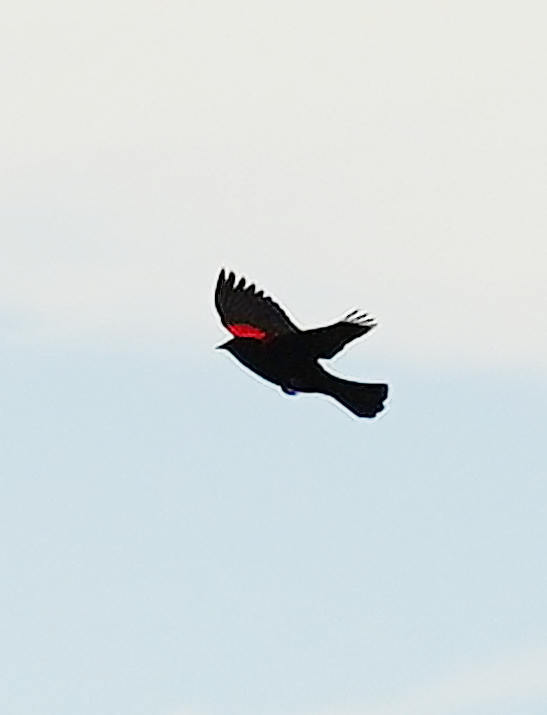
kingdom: Animalia
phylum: Chordata
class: Aves
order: Passeriformes
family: Icteridae
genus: Agelaius
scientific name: Agelaius phoeniceus
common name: Red-winged blackbird
